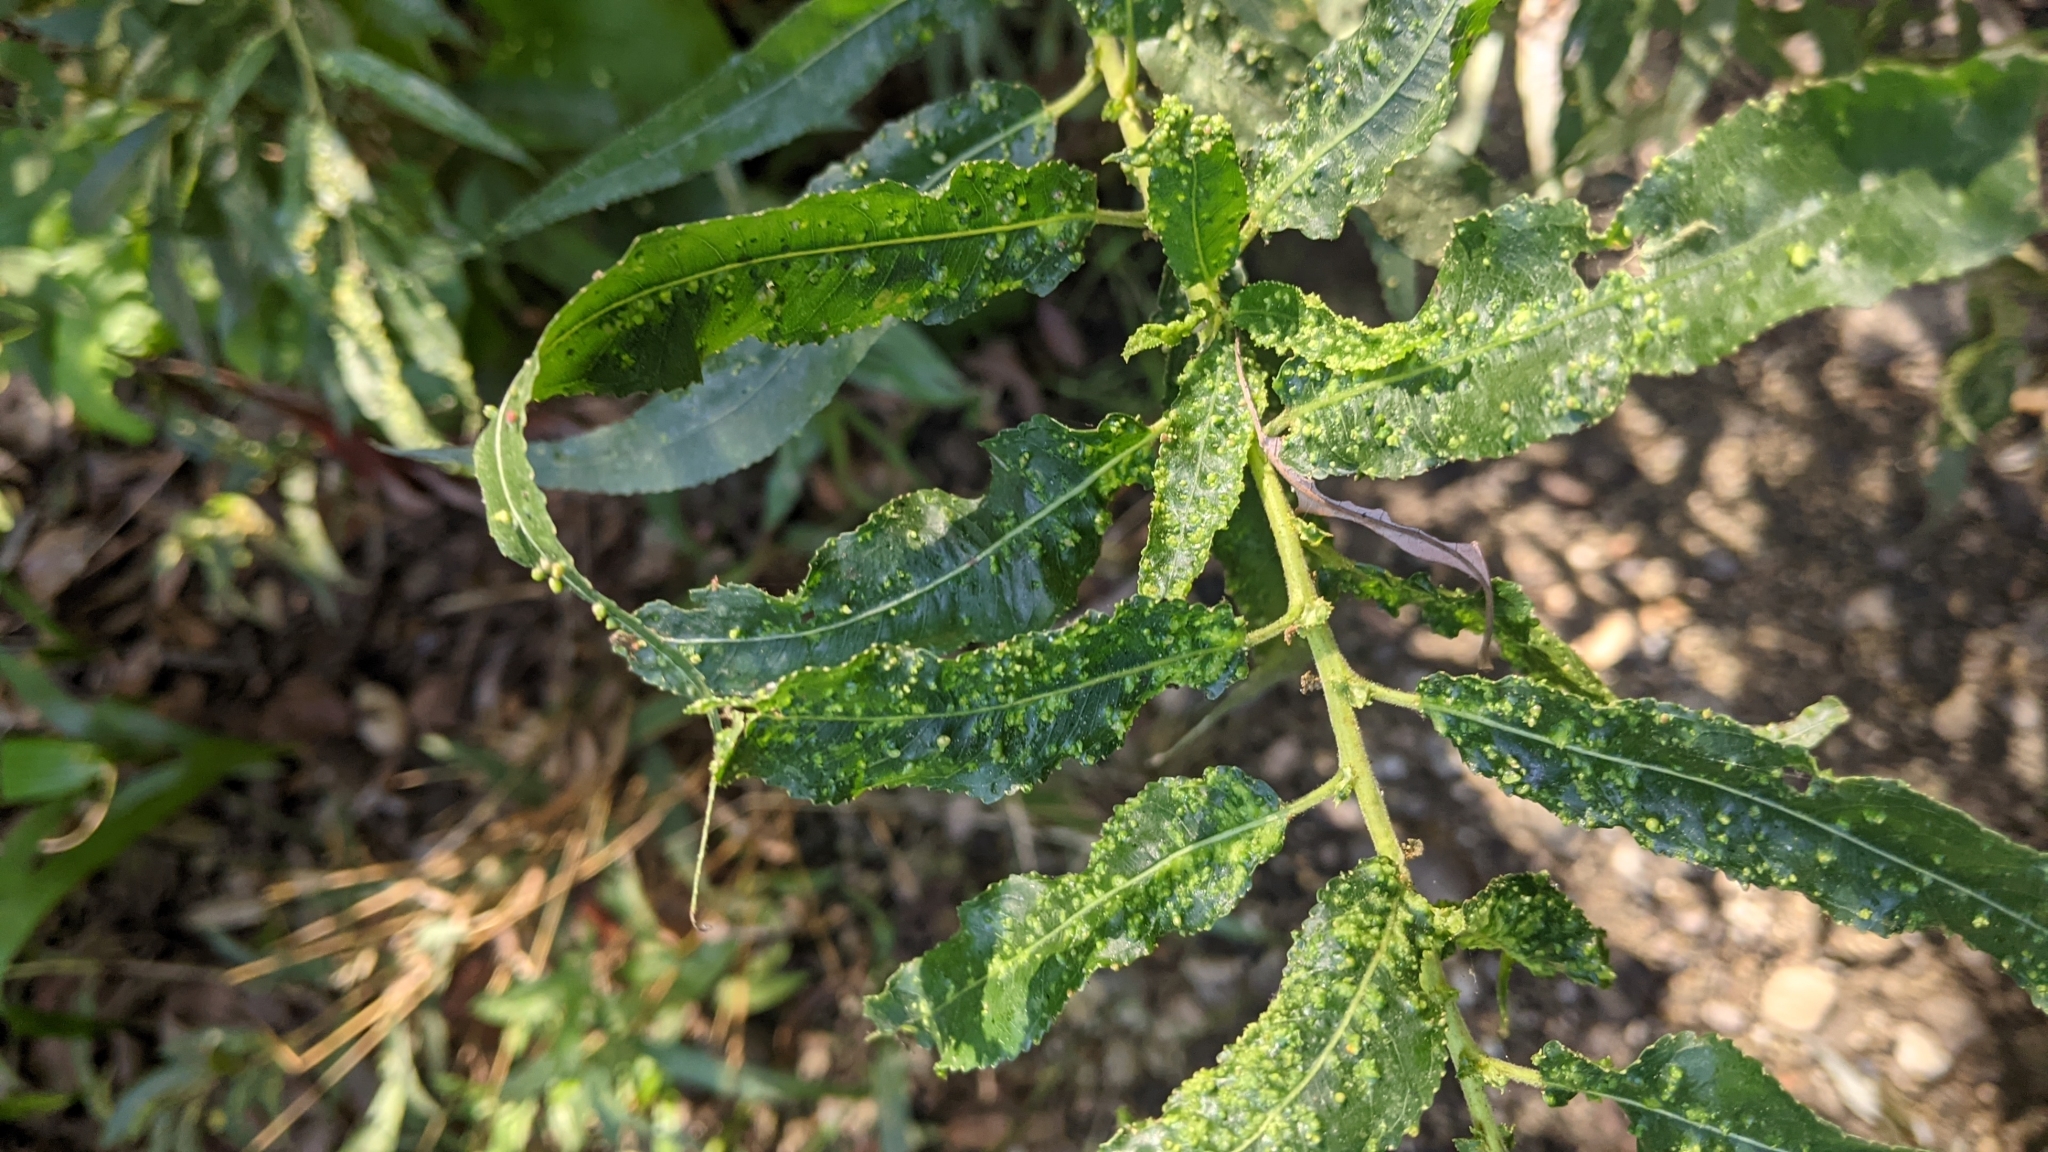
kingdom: Animalia
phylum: Arthropoda
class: Arachnida
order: Trombidiformes
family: Eriophyidae
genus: Aculus
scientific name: Aculus tetanothrix
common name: Willow bead gall mite
